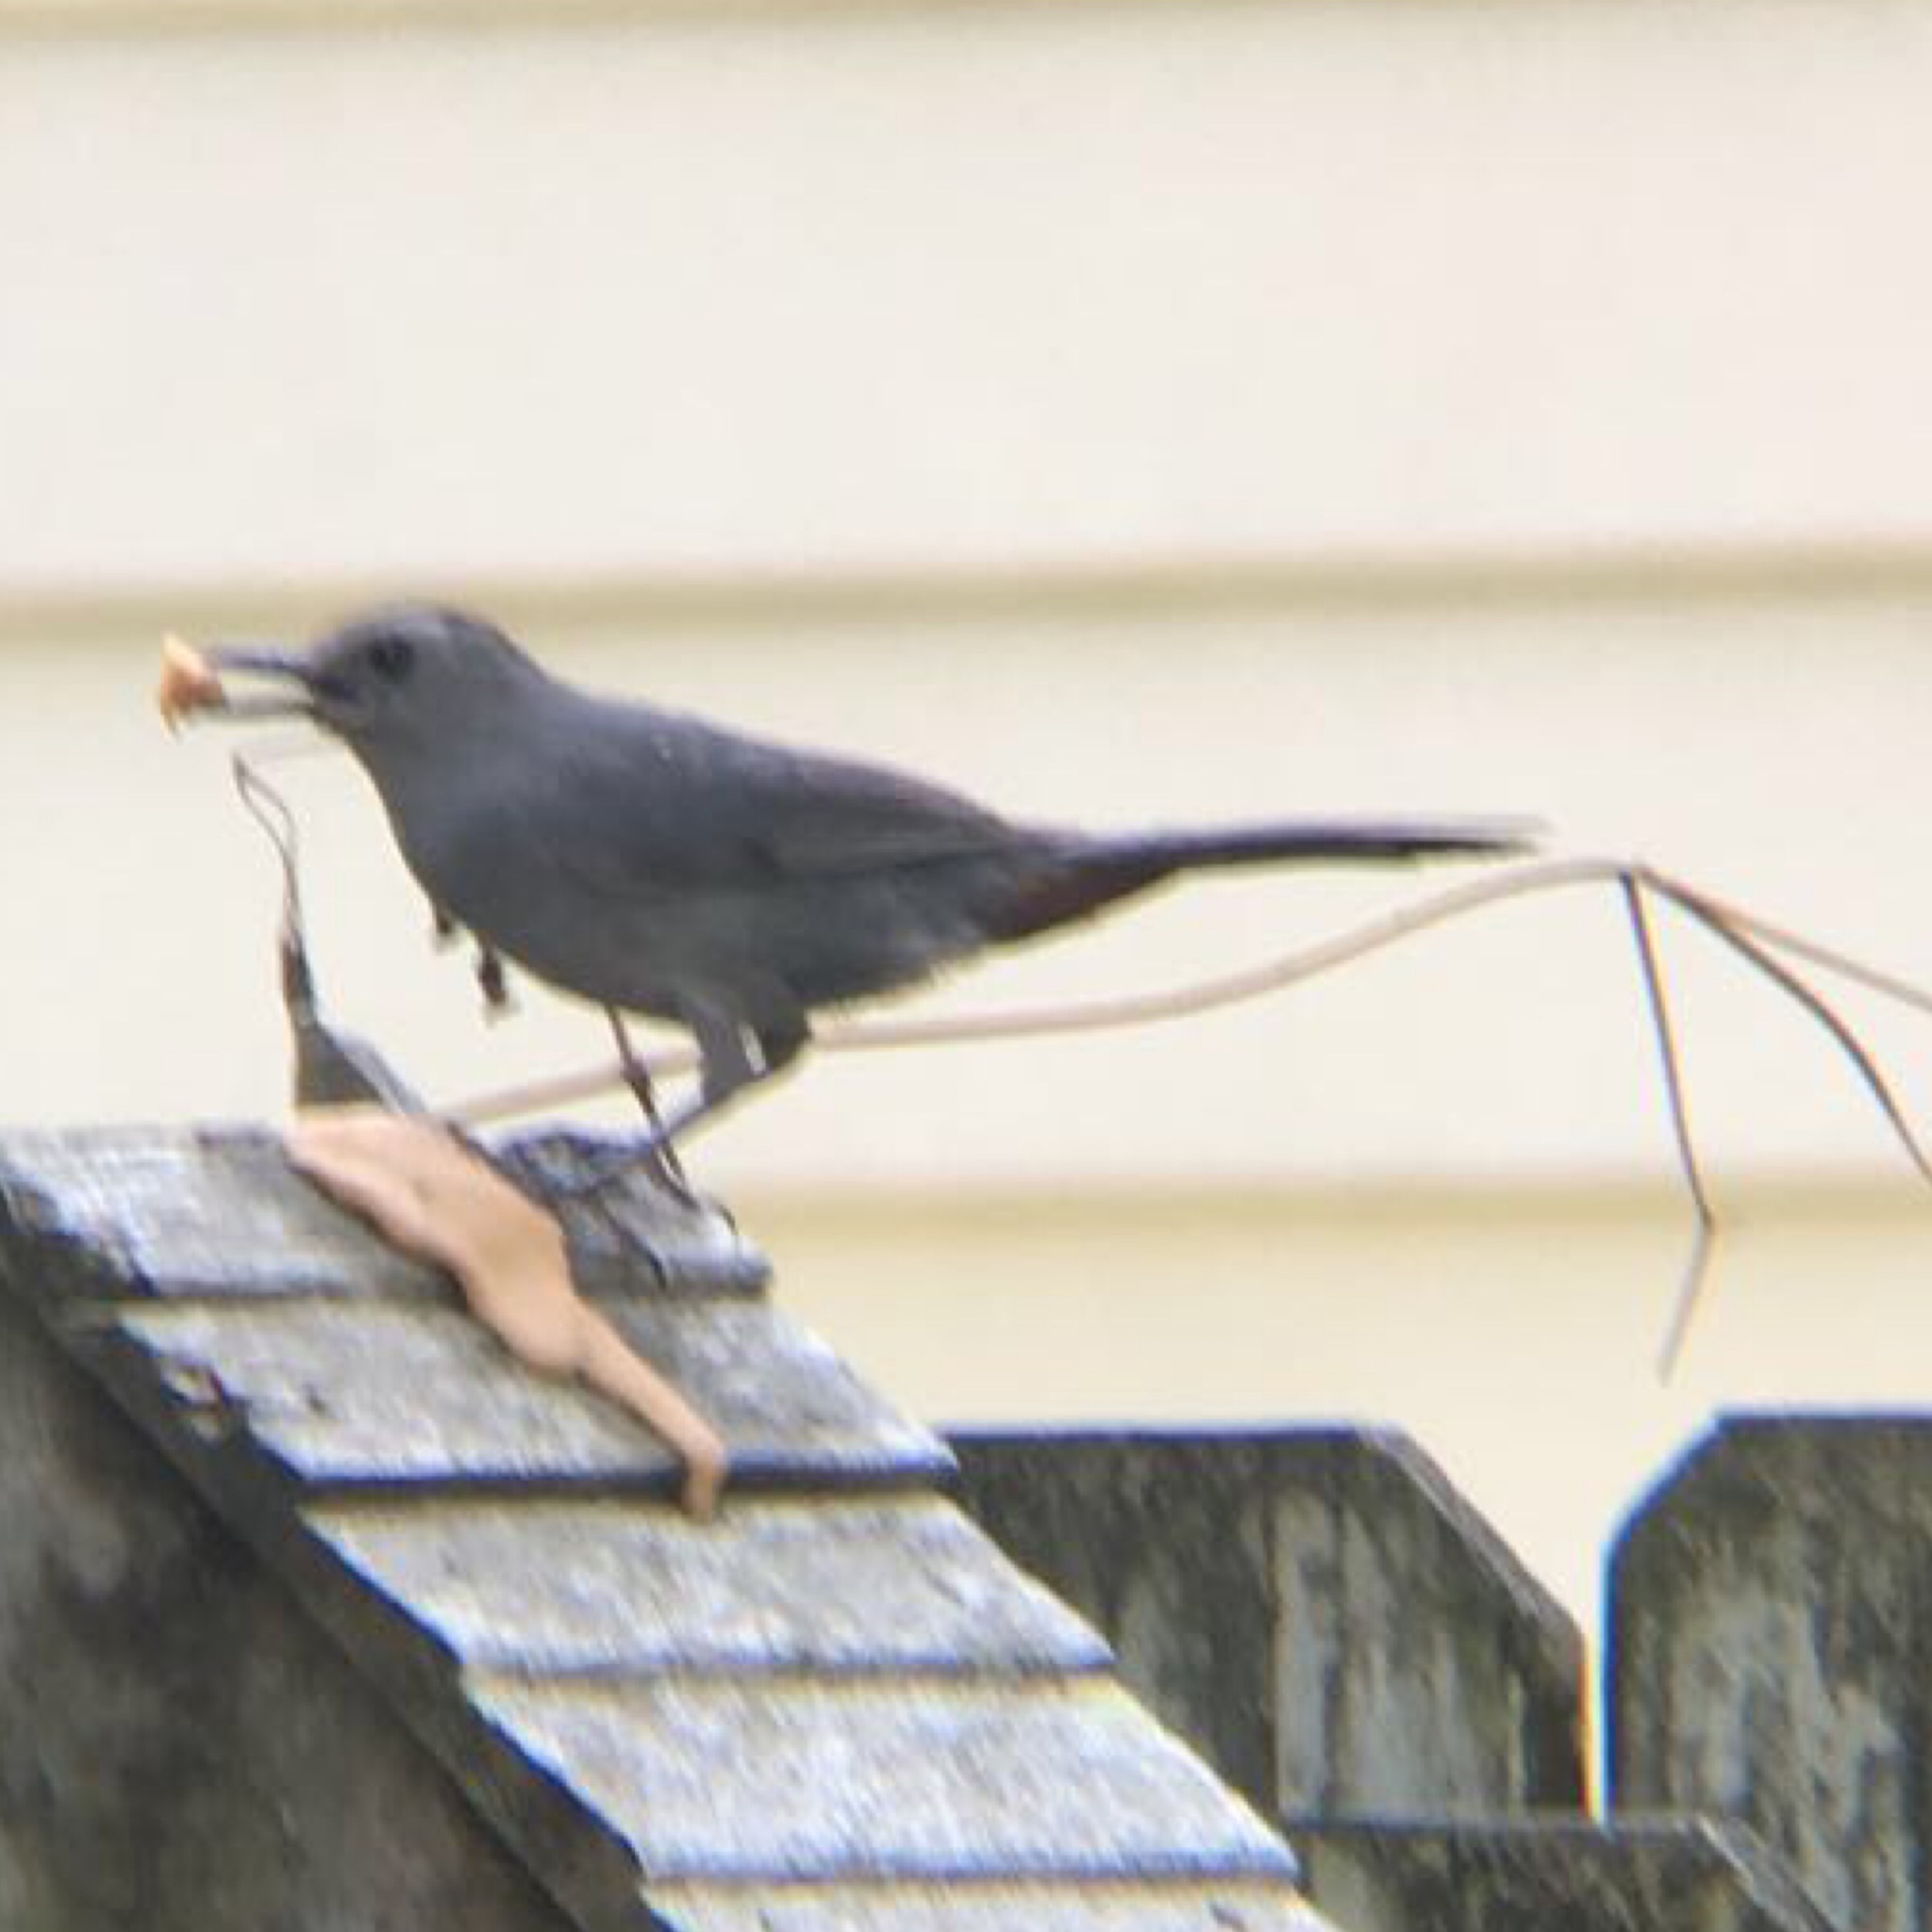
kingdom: Animalia
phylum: Chordata
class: Aves
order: Passeriformes
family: Mimidae
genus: Dumetella
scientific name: Dumetella carolinensis
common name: Gray catbird
